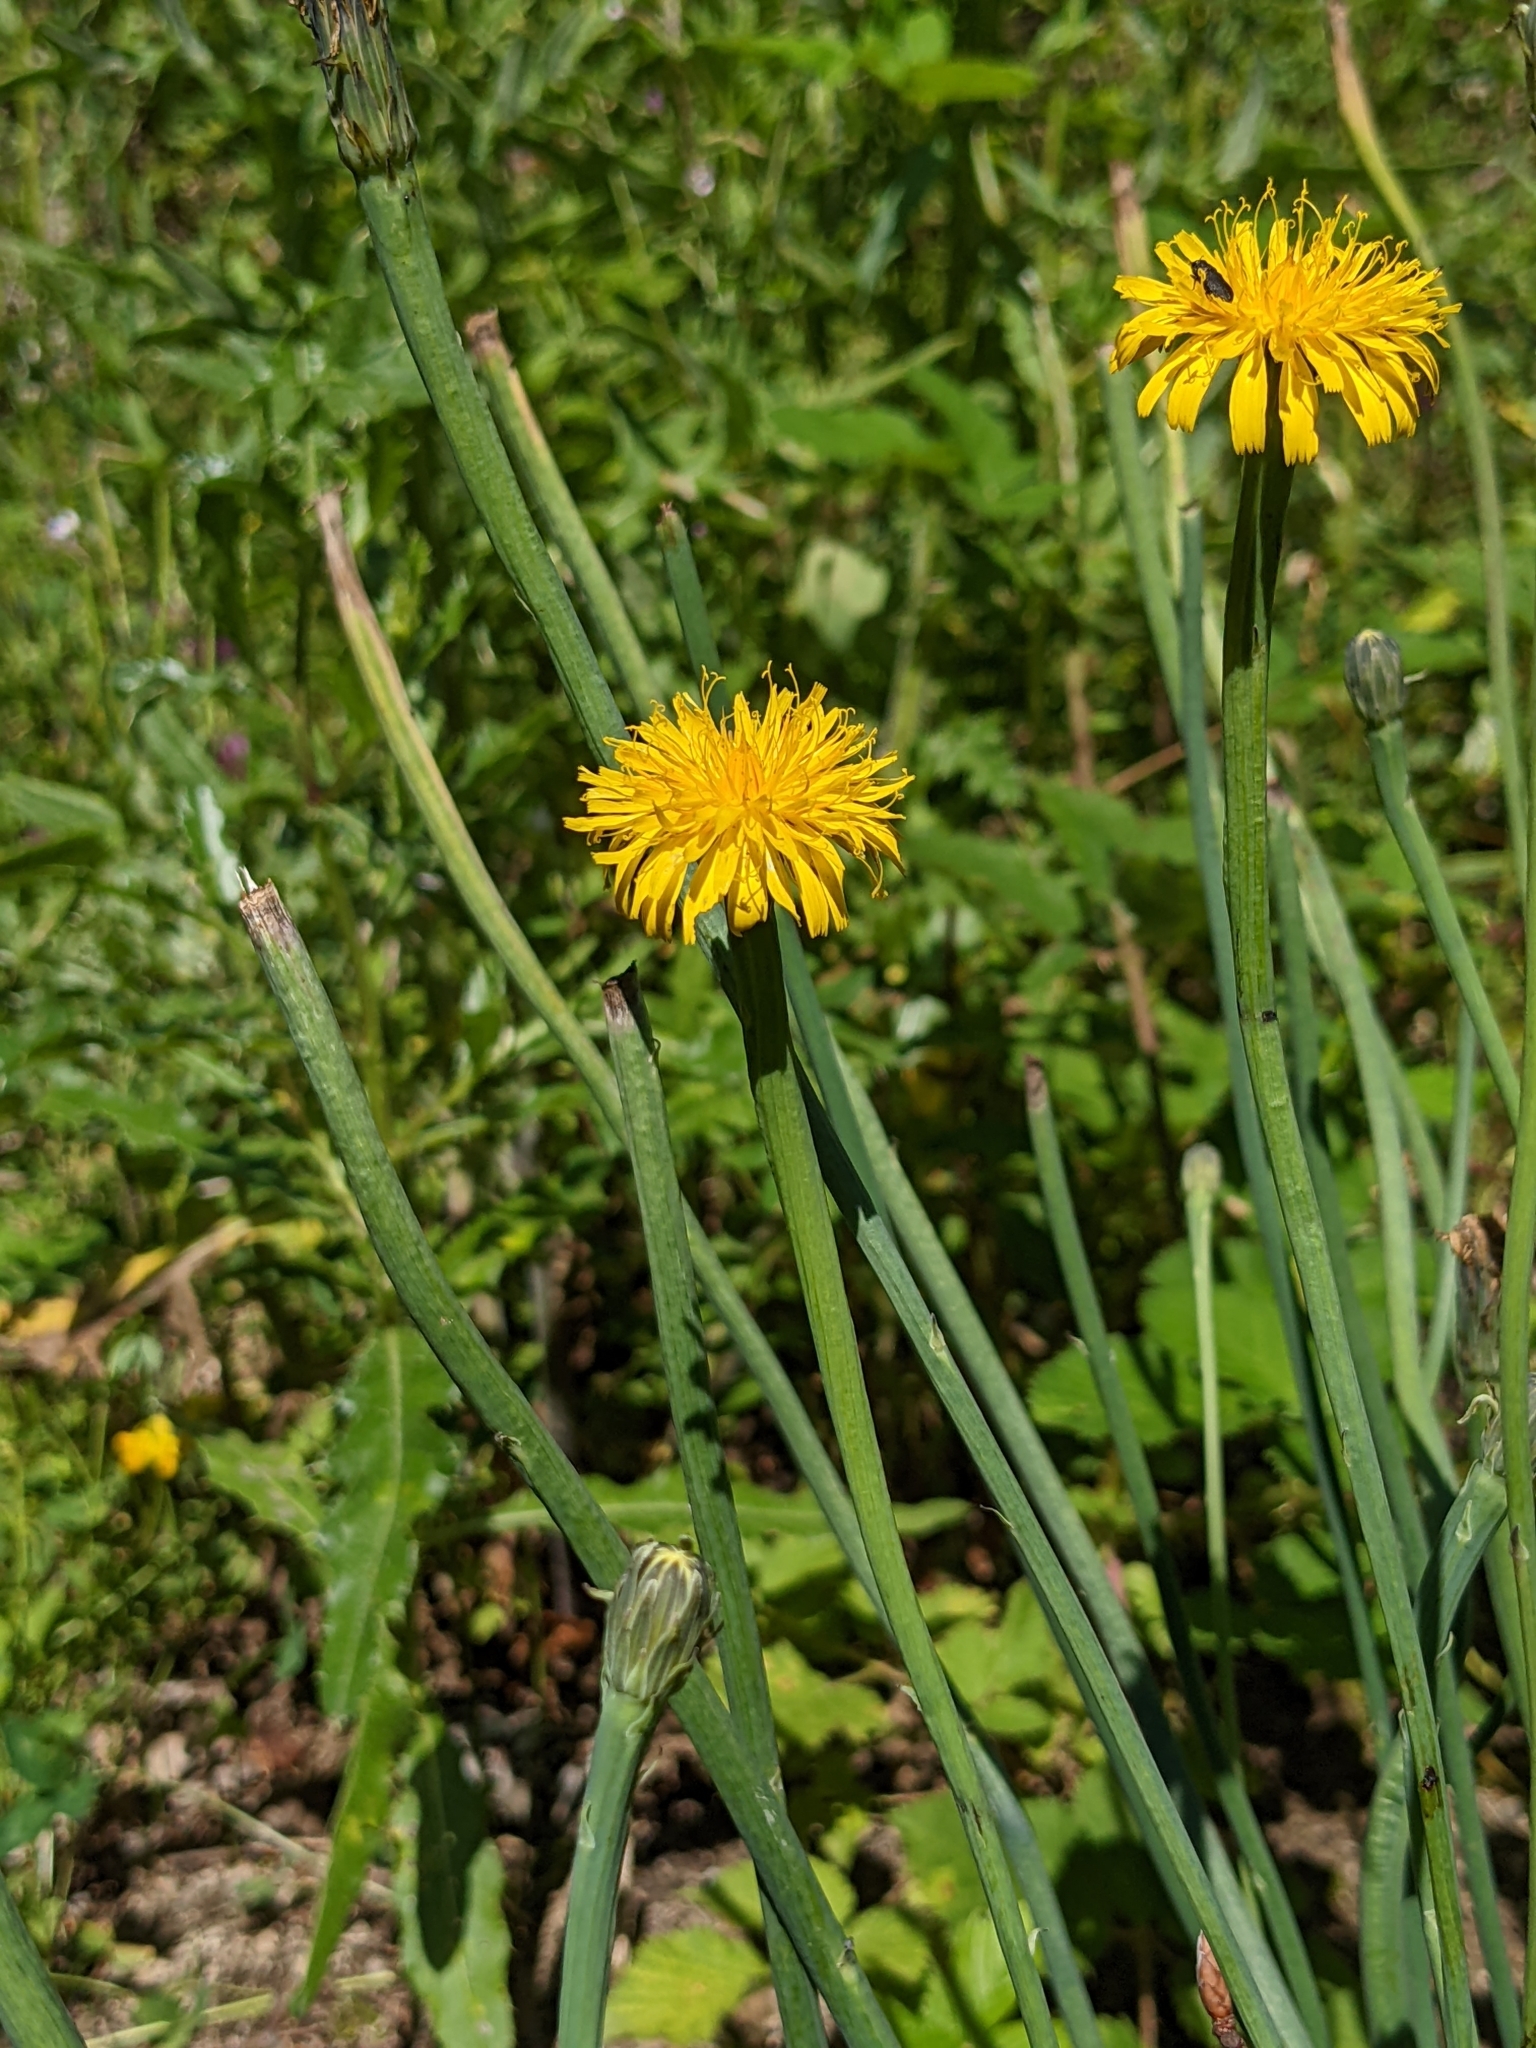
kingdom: Plantae
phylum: Tracheophyta
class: Magnoliopsida
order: Asterales
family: Asteraceae
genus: Hypochaeris
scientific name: Hypochaeris radicata
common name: Flatweed
